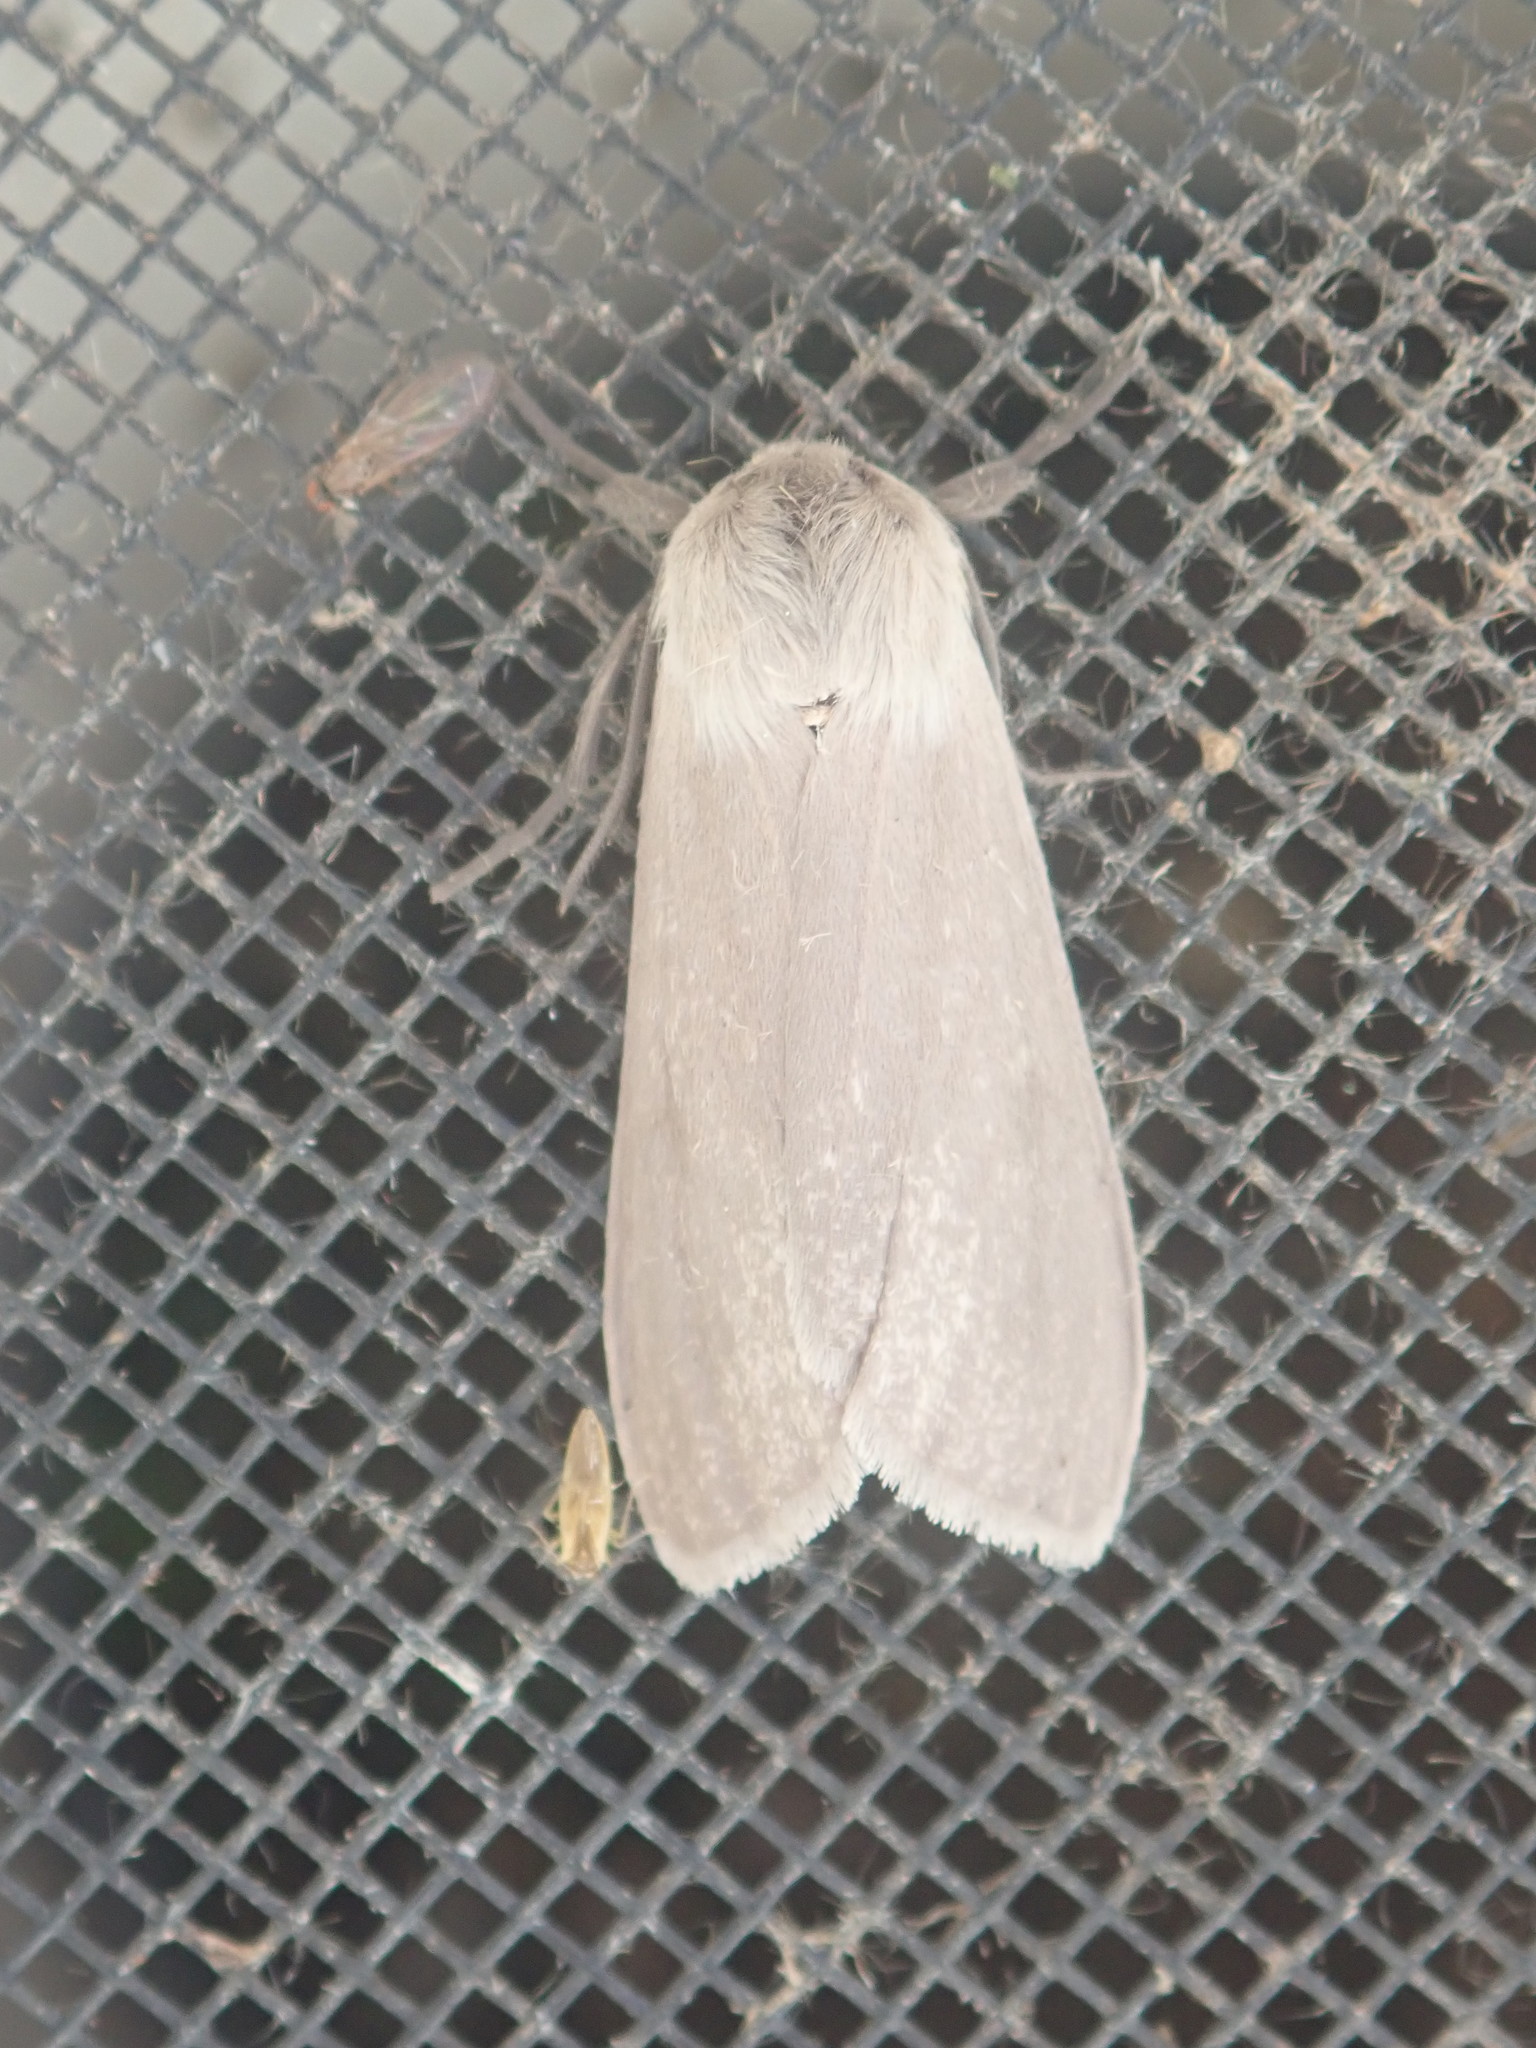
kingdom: Animalia
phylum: Arthropoda
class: Insecta
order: Lepidoptera
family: Erebidae
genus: Euchaetes
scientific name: Euchaetes egle
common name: Milkweed tussock moth
